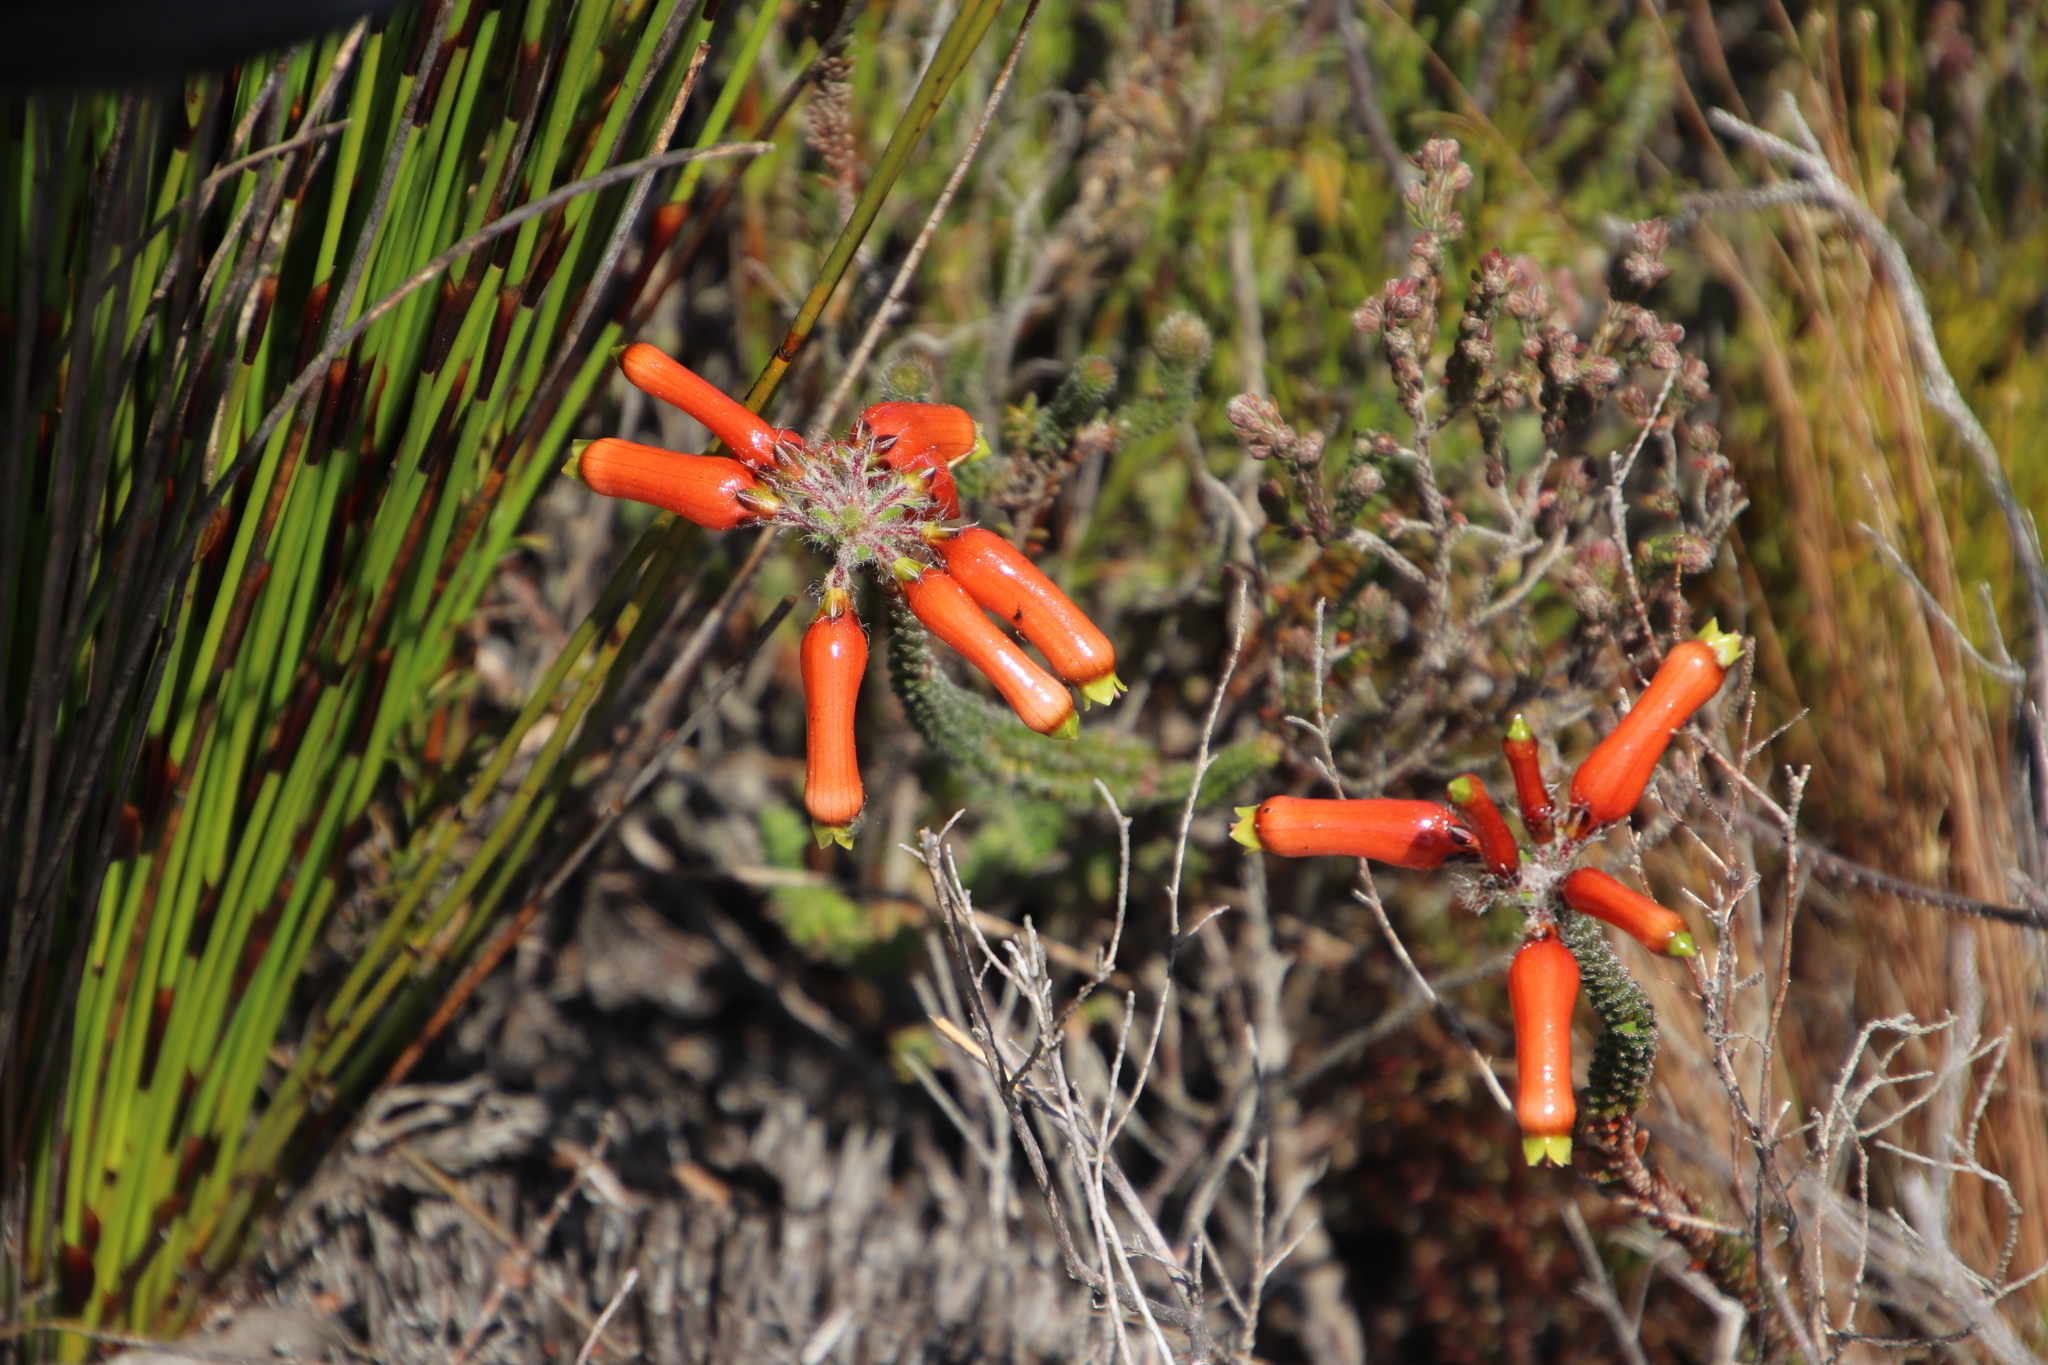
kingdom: Plantae
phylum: Tracheophyta
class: Magnoliopsida
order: Ericales
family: Ericaceae
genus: Erica
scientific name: Erica massonii
